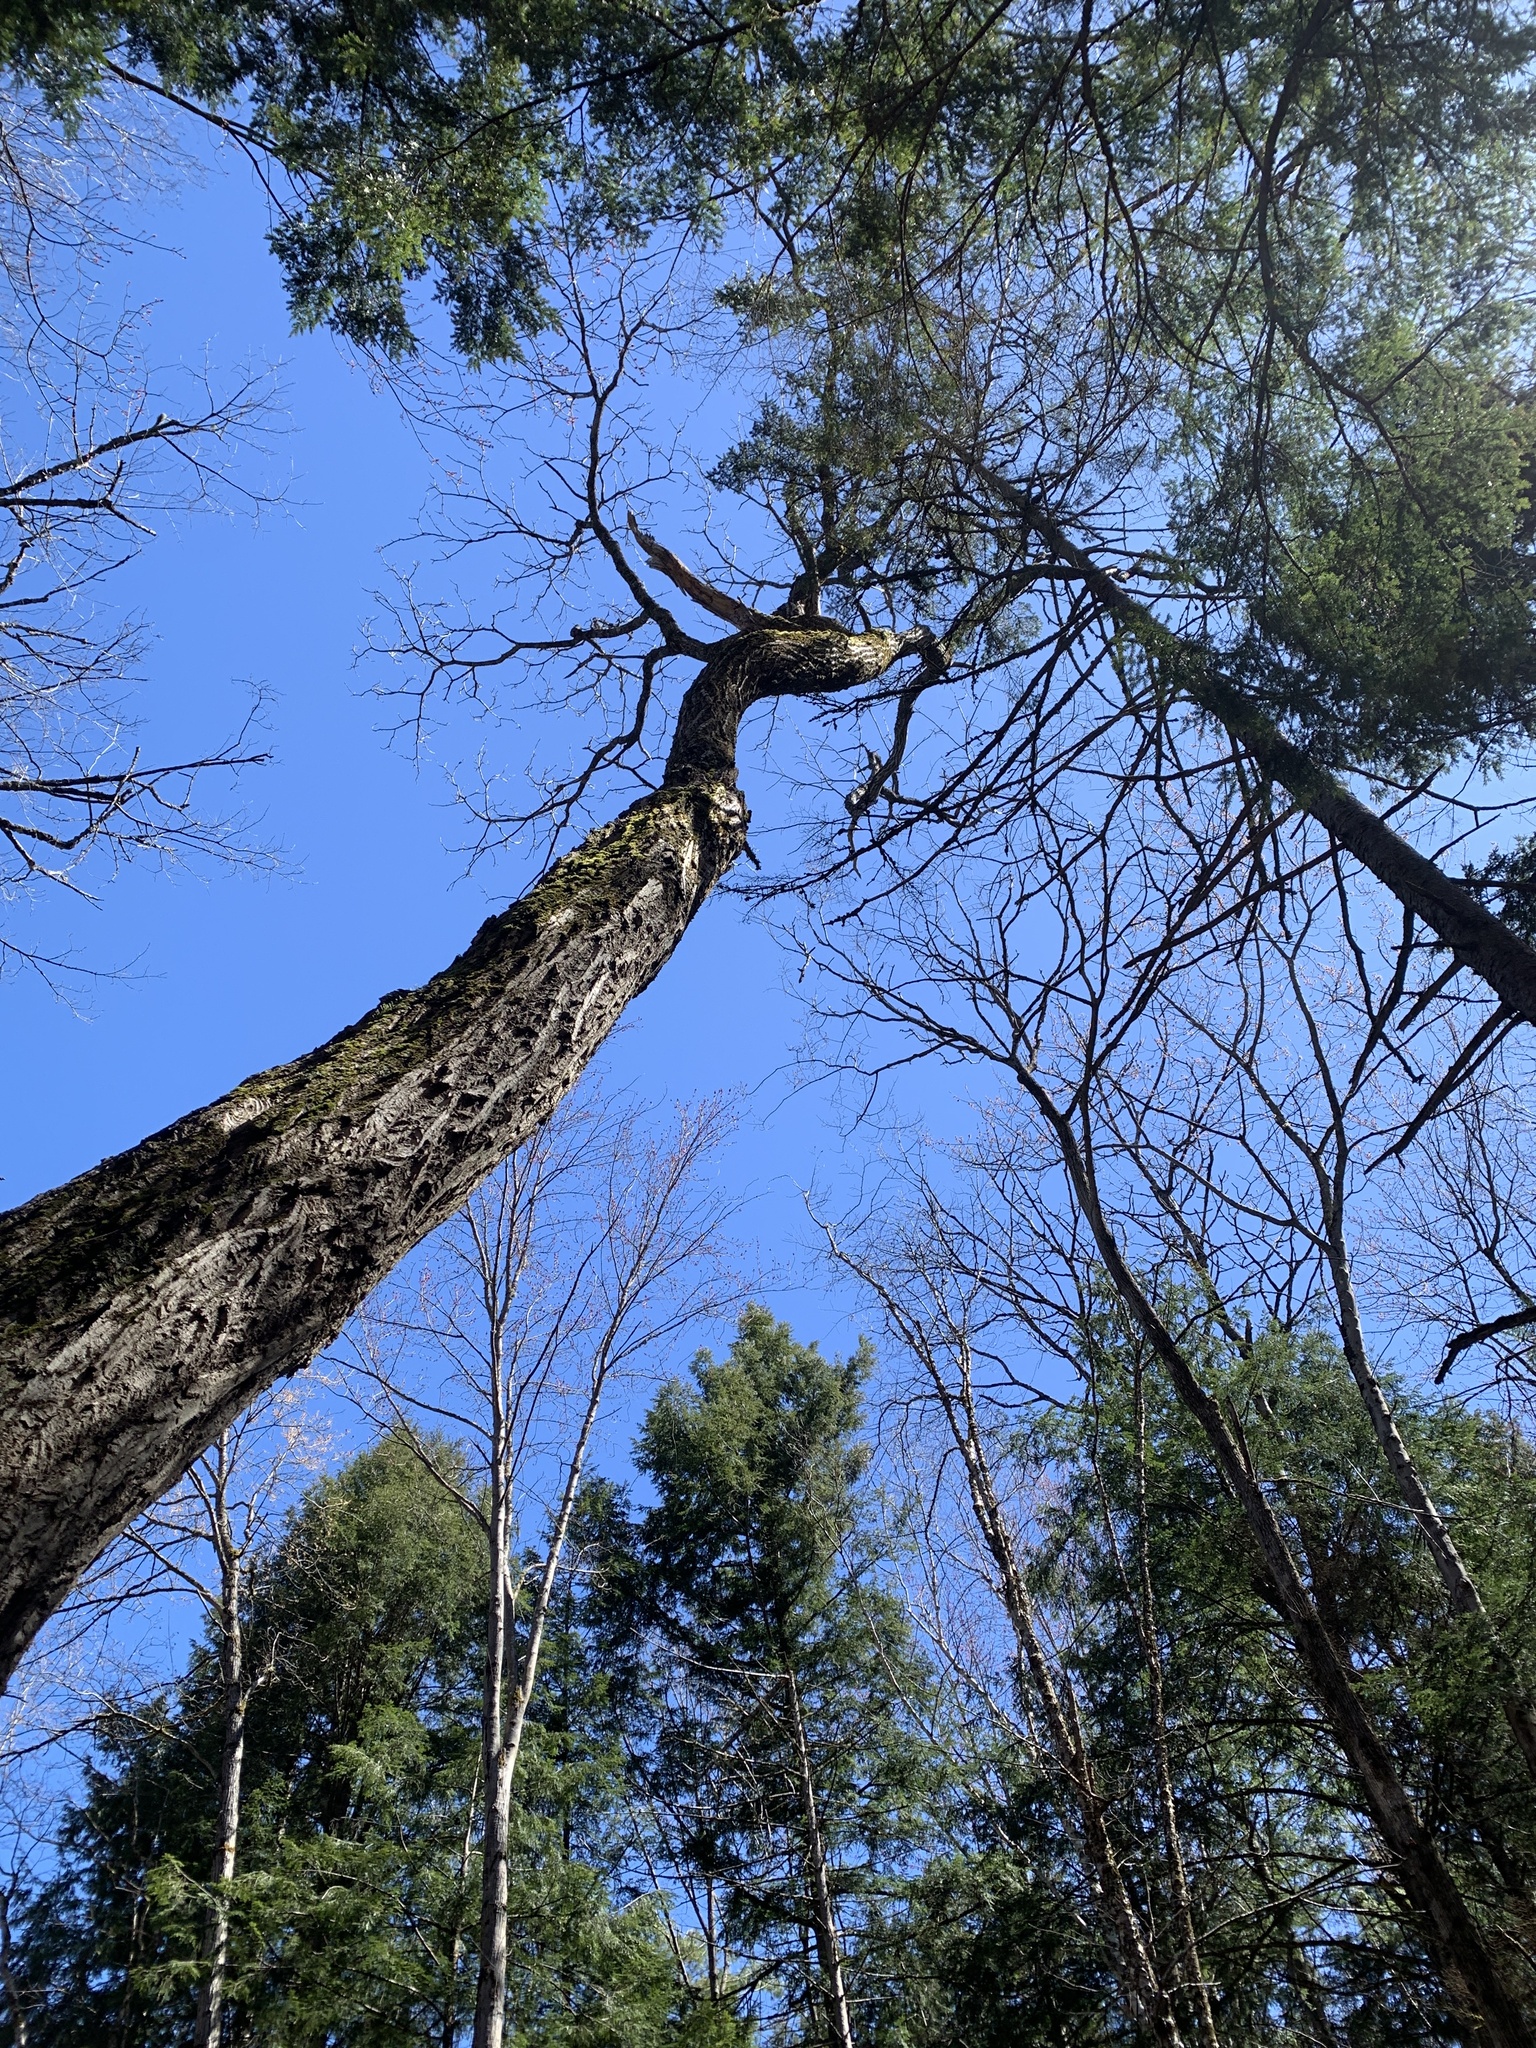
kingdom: Plantae
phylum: Tracheophyta
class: Magnoliopsida
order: Fagales
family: Juglandaceae
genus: Juglans
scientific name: Juglans cinerea
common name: Butternut
